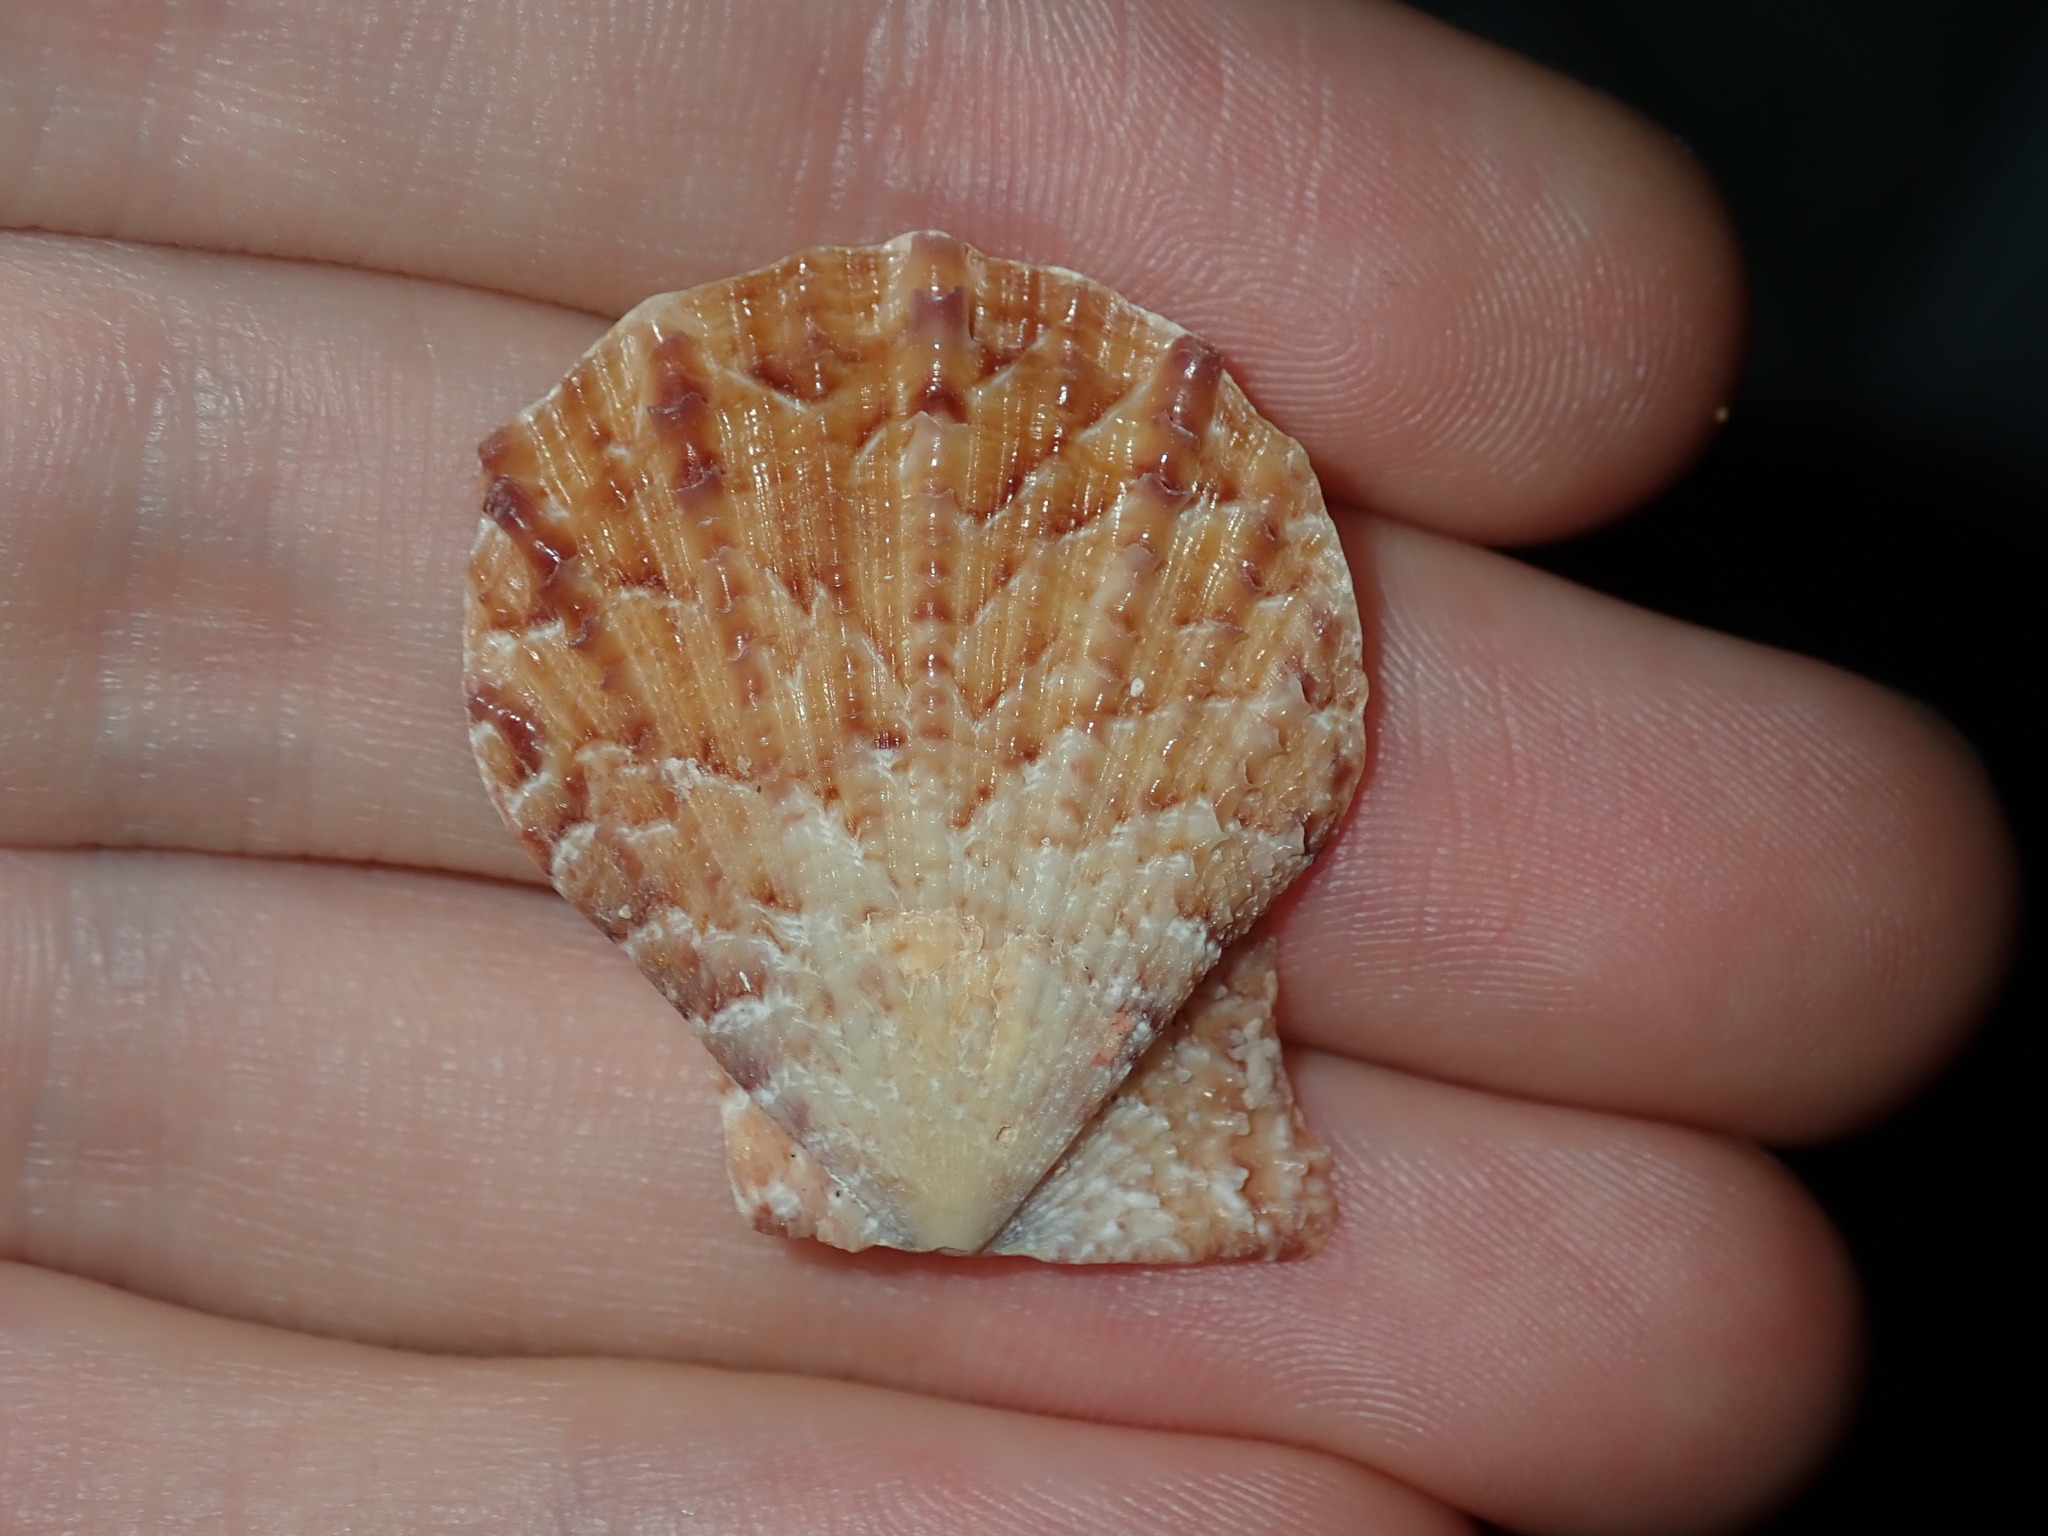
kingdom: Animalia
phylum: Mollusca
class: Bivalvia
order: Pectinida
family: Pectinidae
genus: Scaeochlamys
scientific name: Scaeochlamys livida
